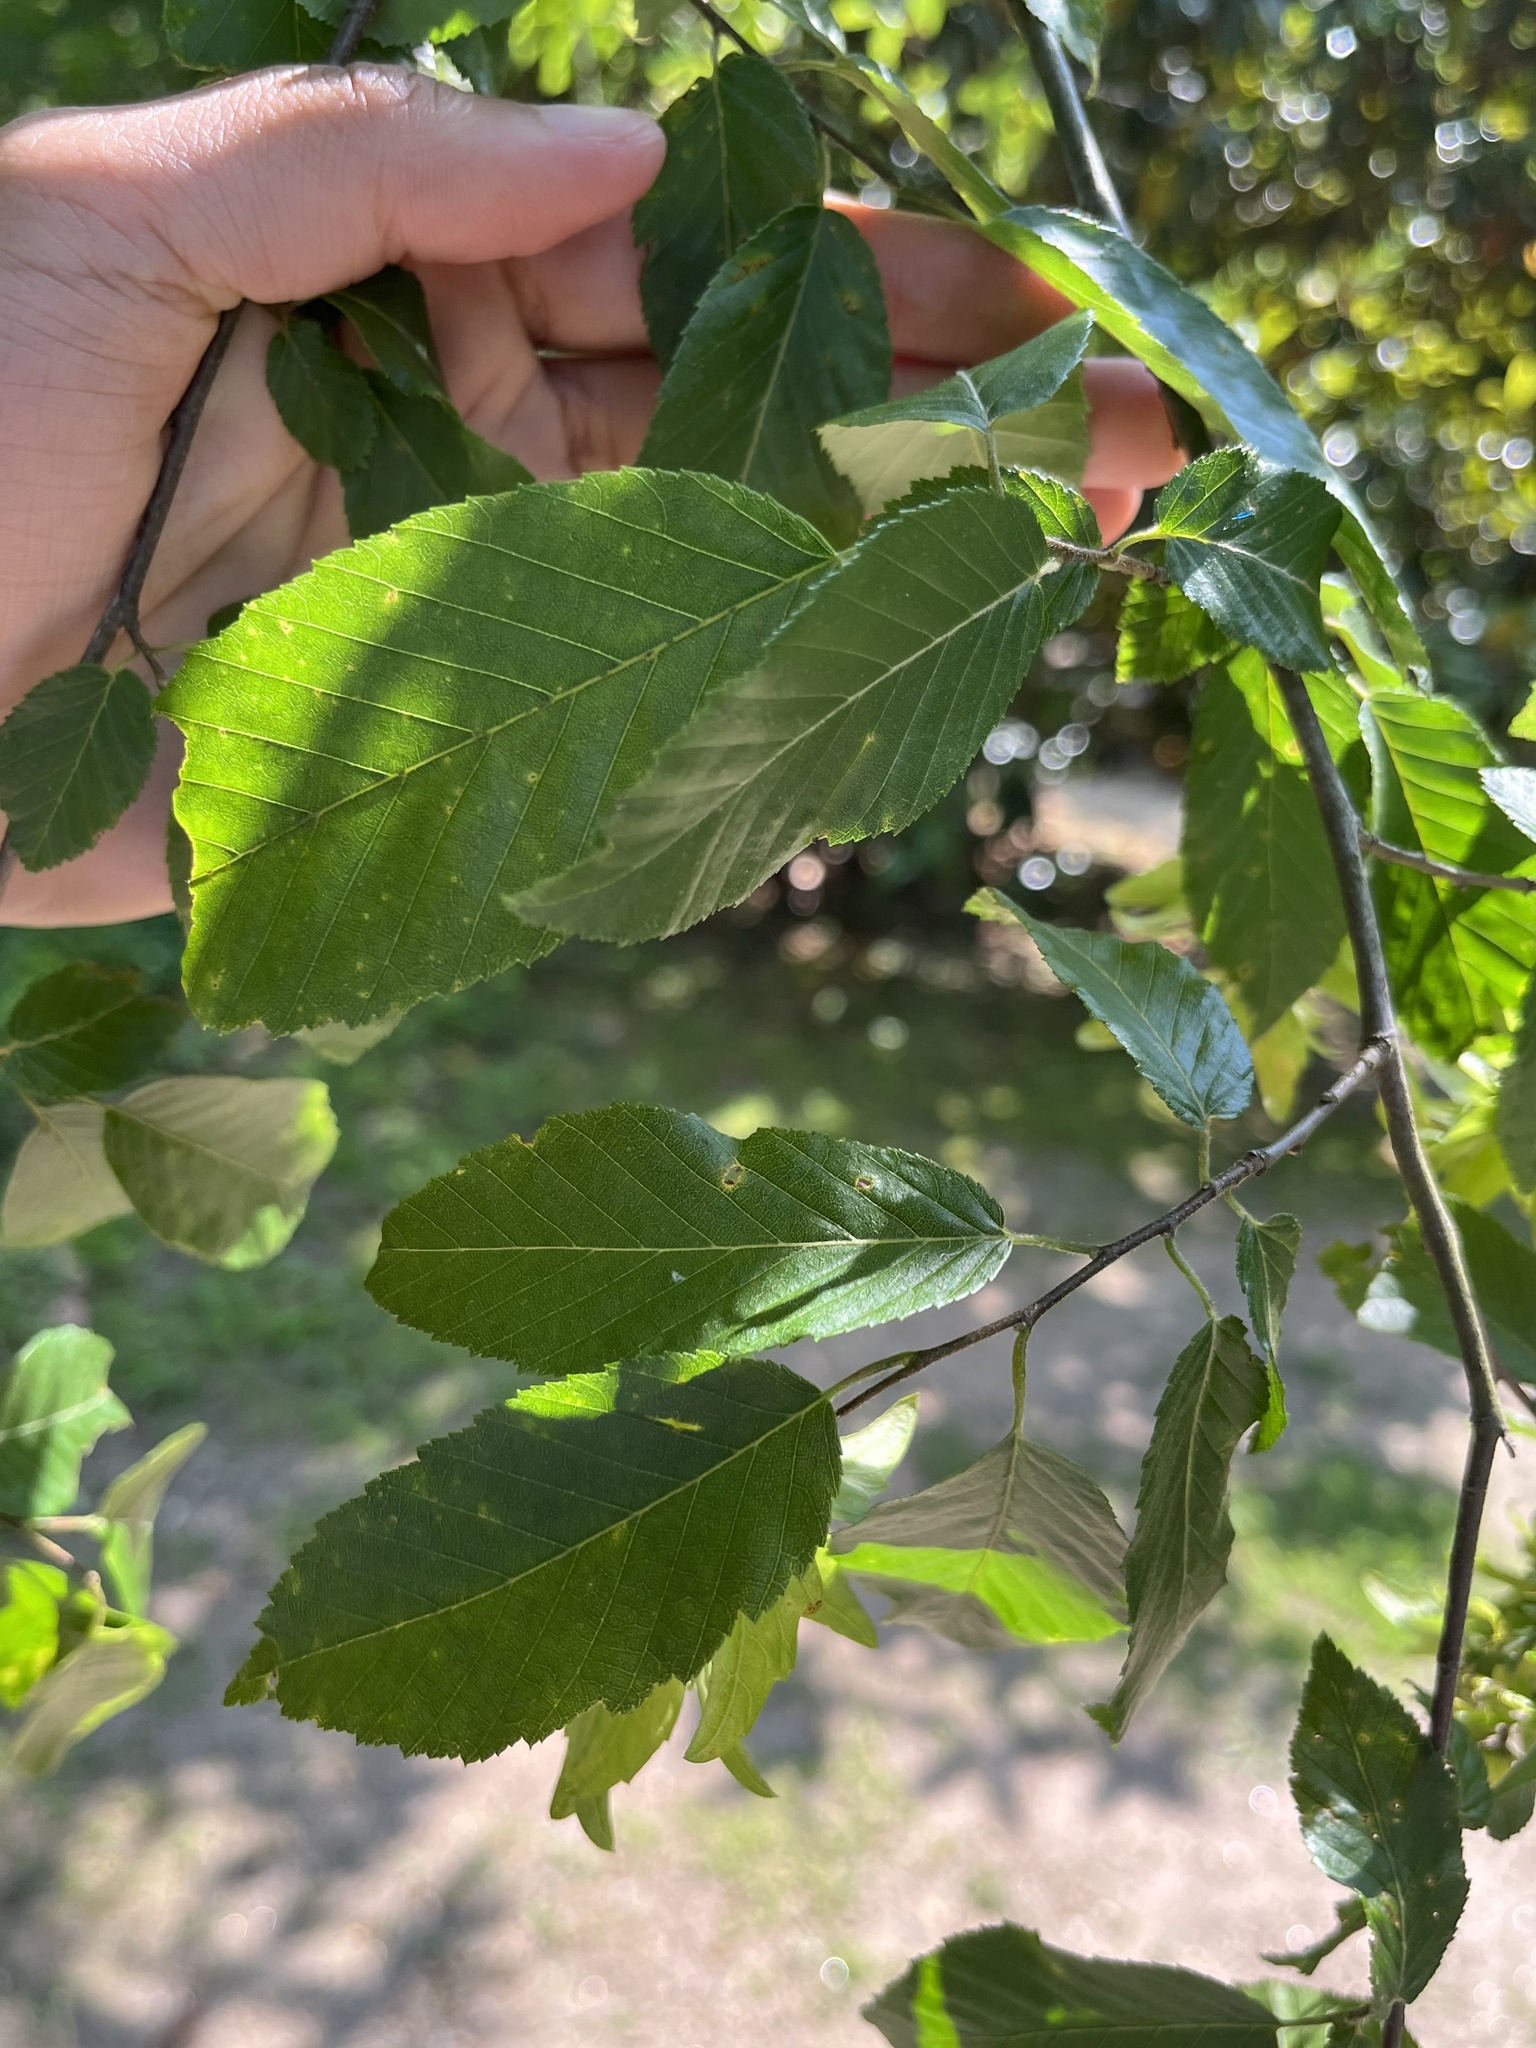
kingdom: Plantae
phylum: Tracheophyta
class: Magnoliopsida
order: Fagales
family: Betulaceae
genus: Carpinus
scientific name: Carpinus caroliniana
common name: American hornbeam
